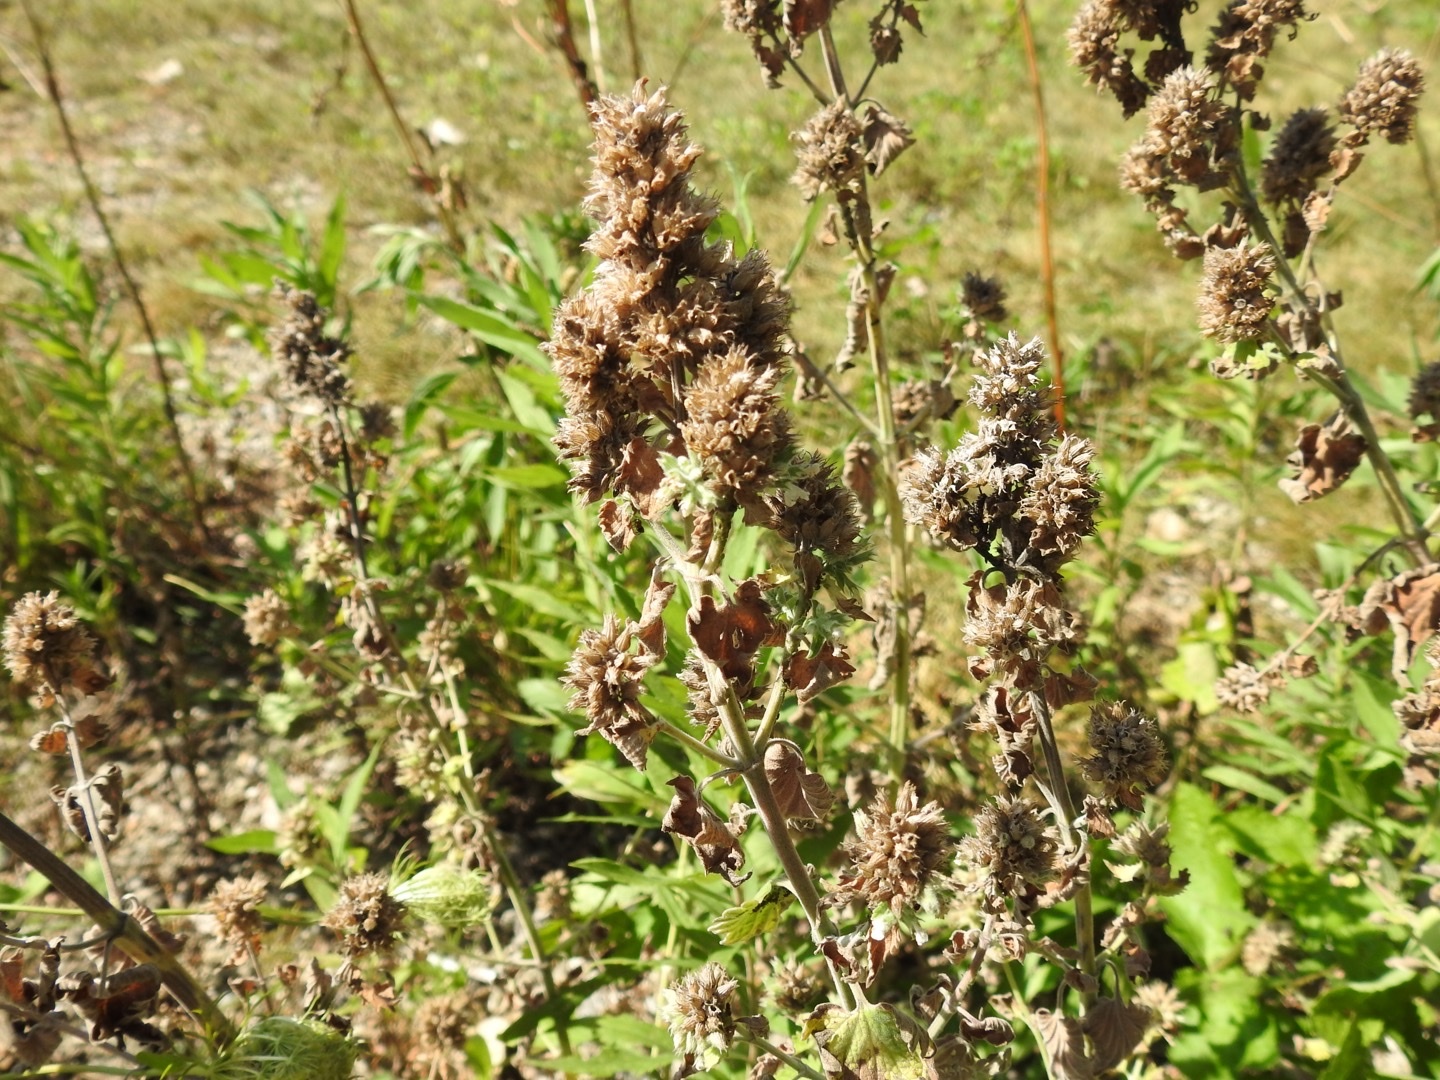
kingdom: Plantae
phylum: Tracheophyta
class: Magnoliopsida
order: Lamiales
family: Lamiaceae
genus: Nepeta
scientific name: Nepeta cataria
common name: Catnip
